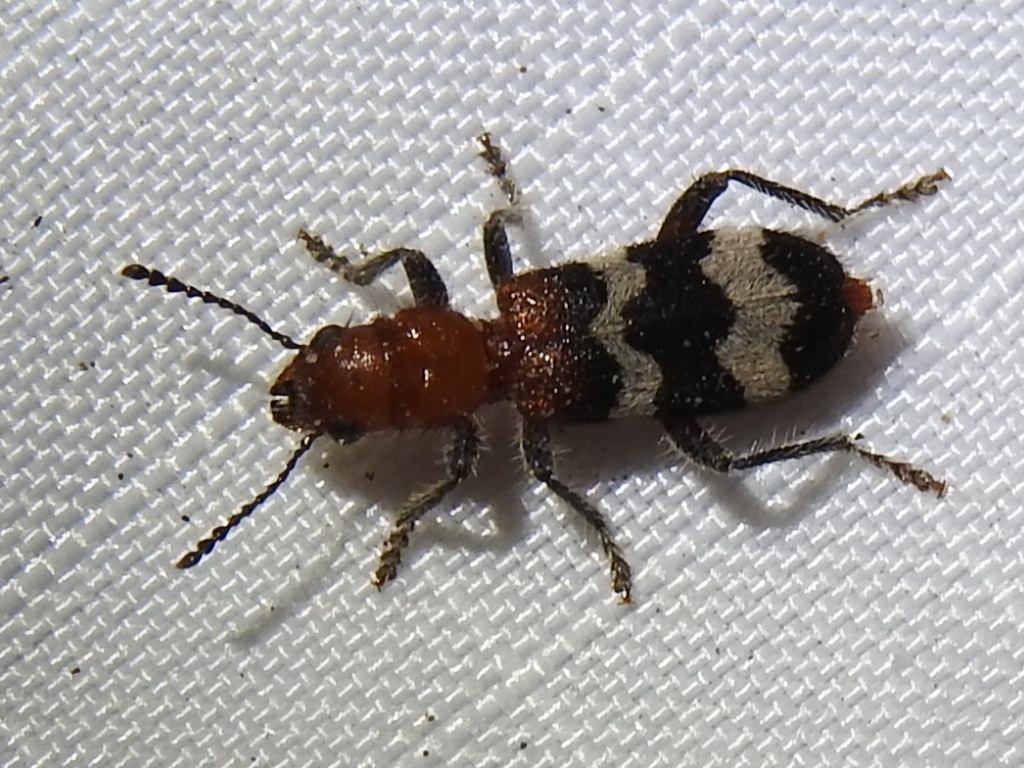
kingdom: Animalia
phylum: Arthropoda
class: Insecta
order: Coleoptera
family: Cleridae
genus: Thanasimus
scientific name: Thanasimus dubius
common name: Wavering checkered beetle
